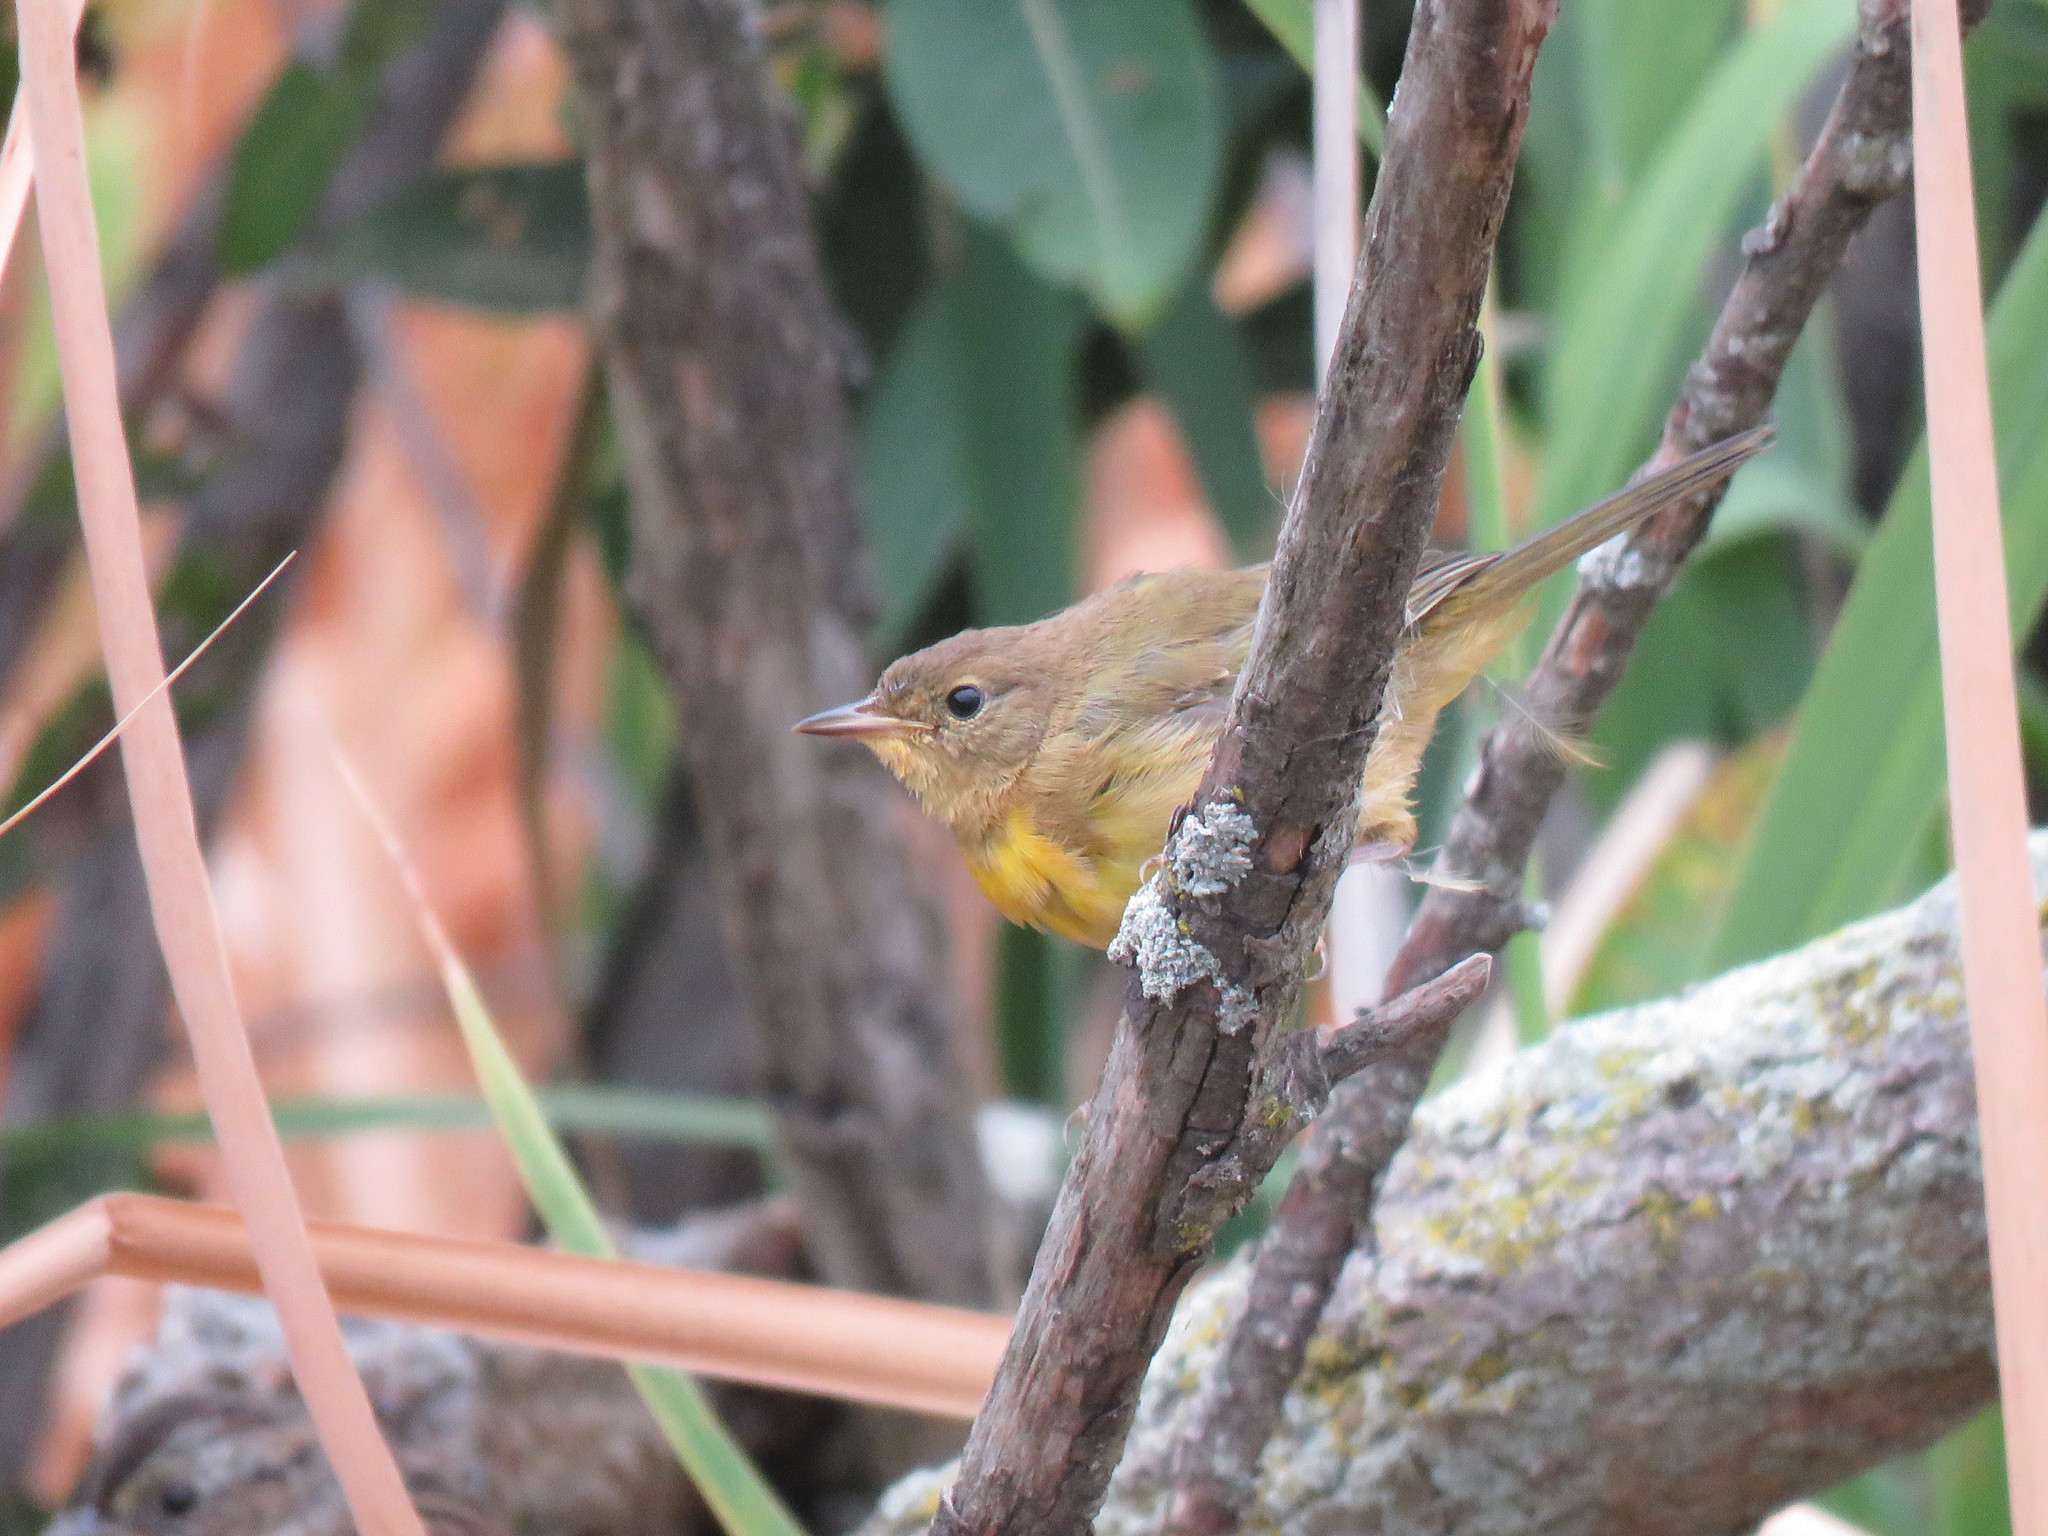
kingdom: Animalia
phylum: Chordata
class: Aves
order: Passeriformes
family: Parulidae
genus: Geothlypis
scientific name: Geothlypis trichas
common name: Common yellowthroat
